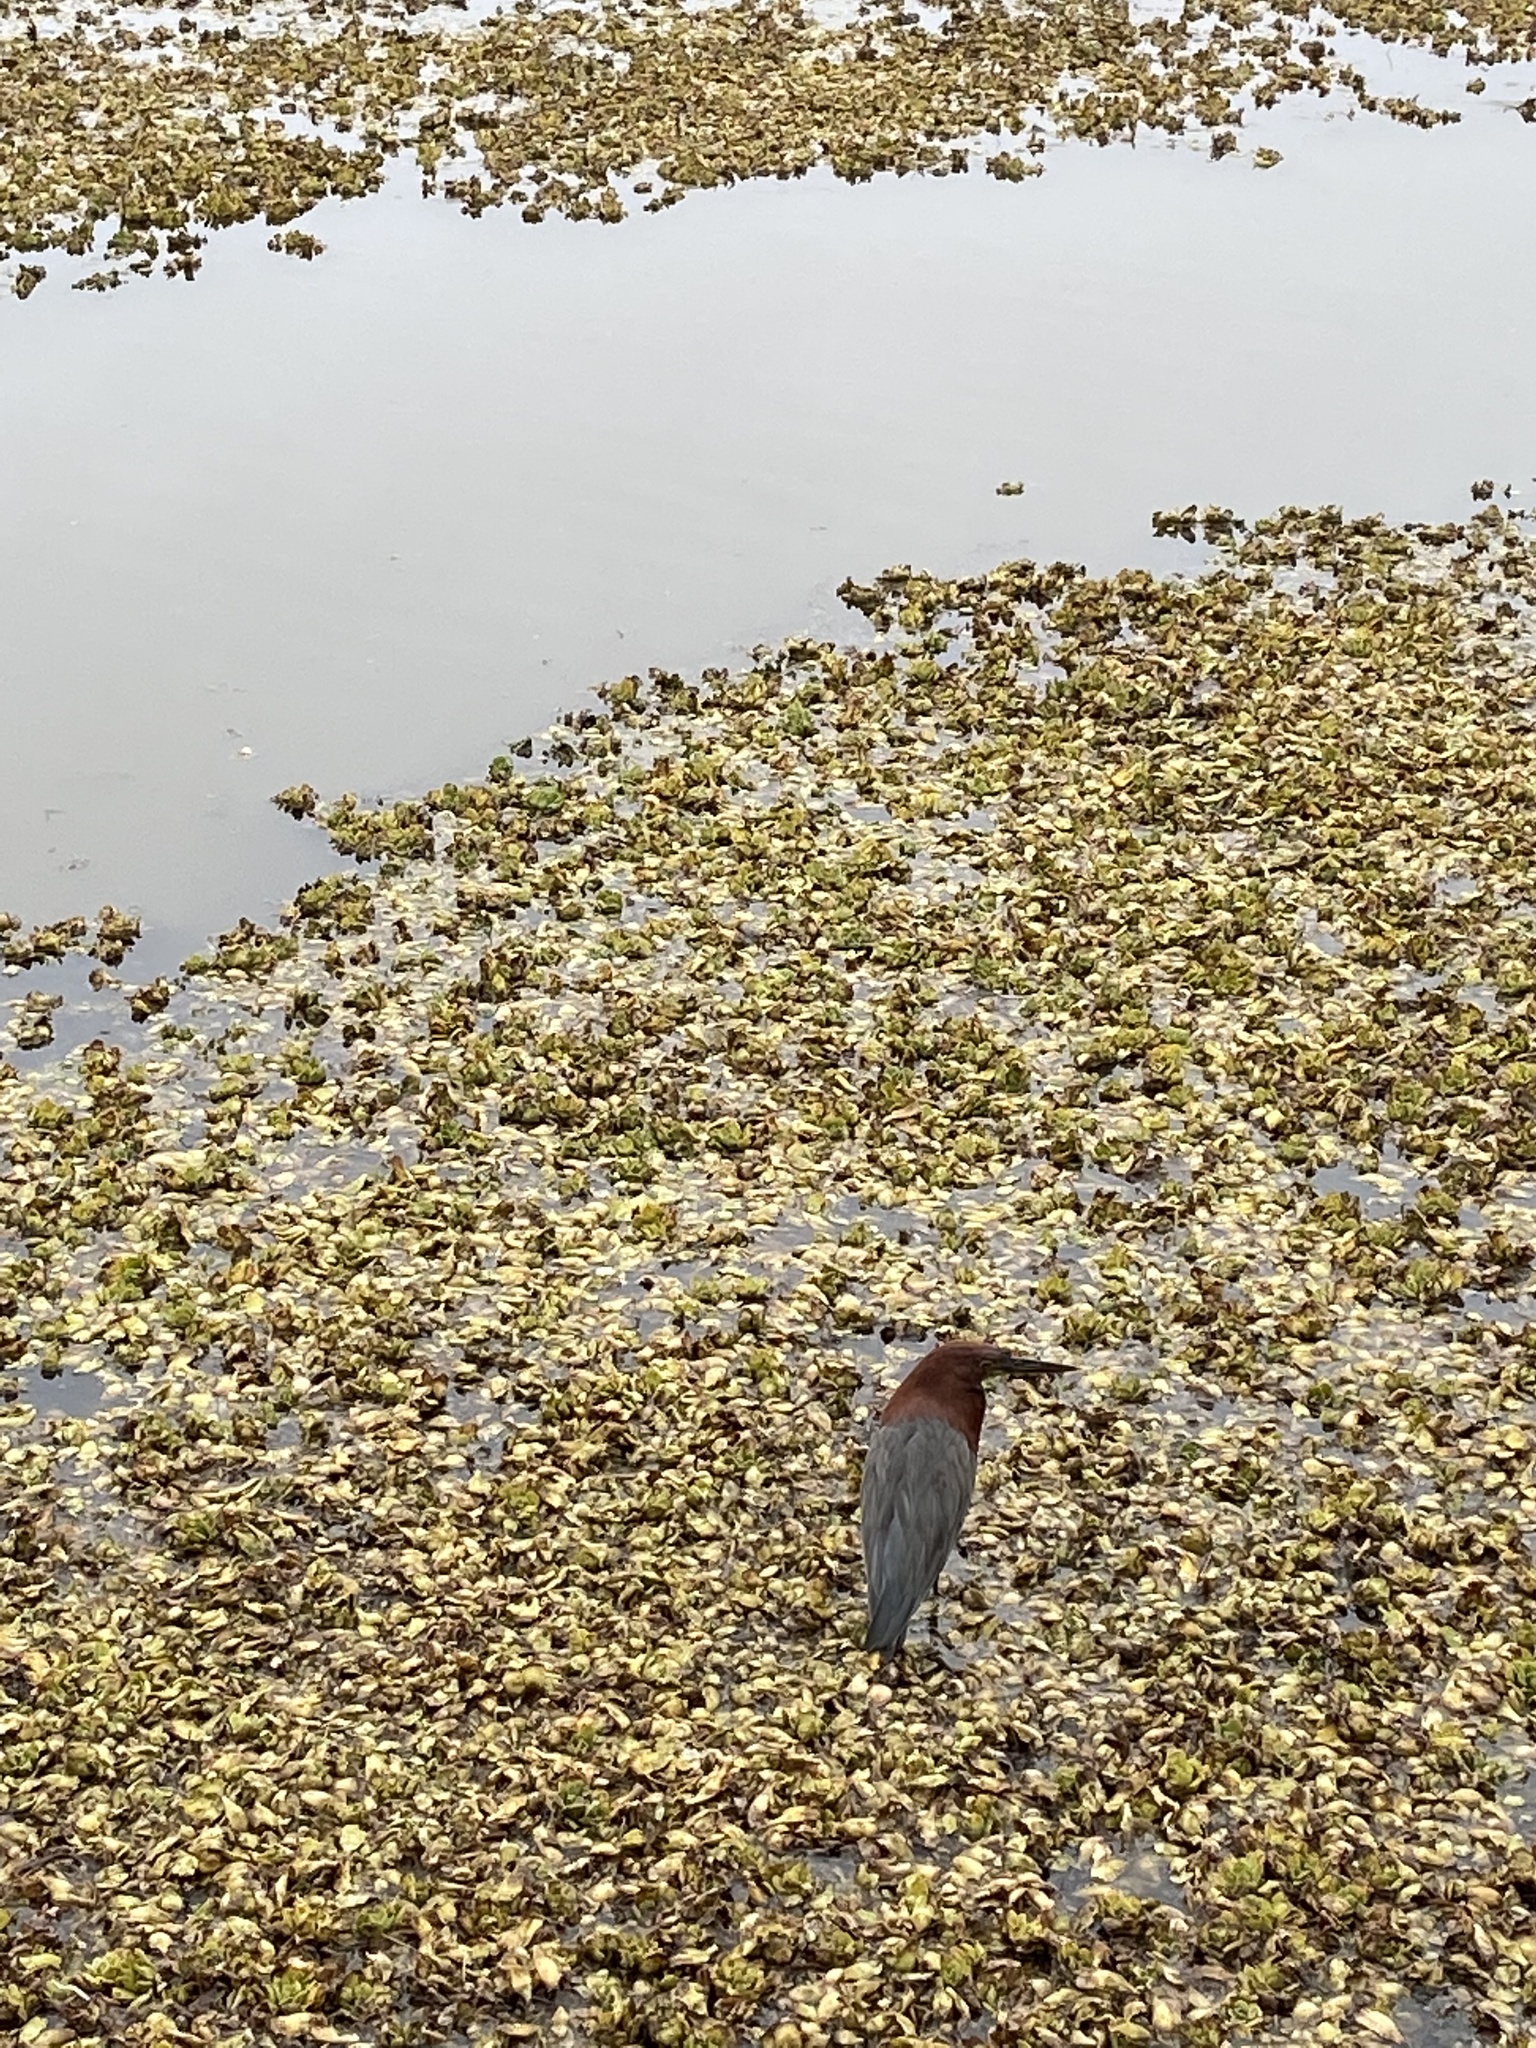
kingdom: Animalia
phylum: Chordata
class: Aves
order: Pelecaniformes
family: Ardeidae
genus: Tigrisoma
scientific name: Tigrisoma lineatum
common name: Rufescent tiger-heron
